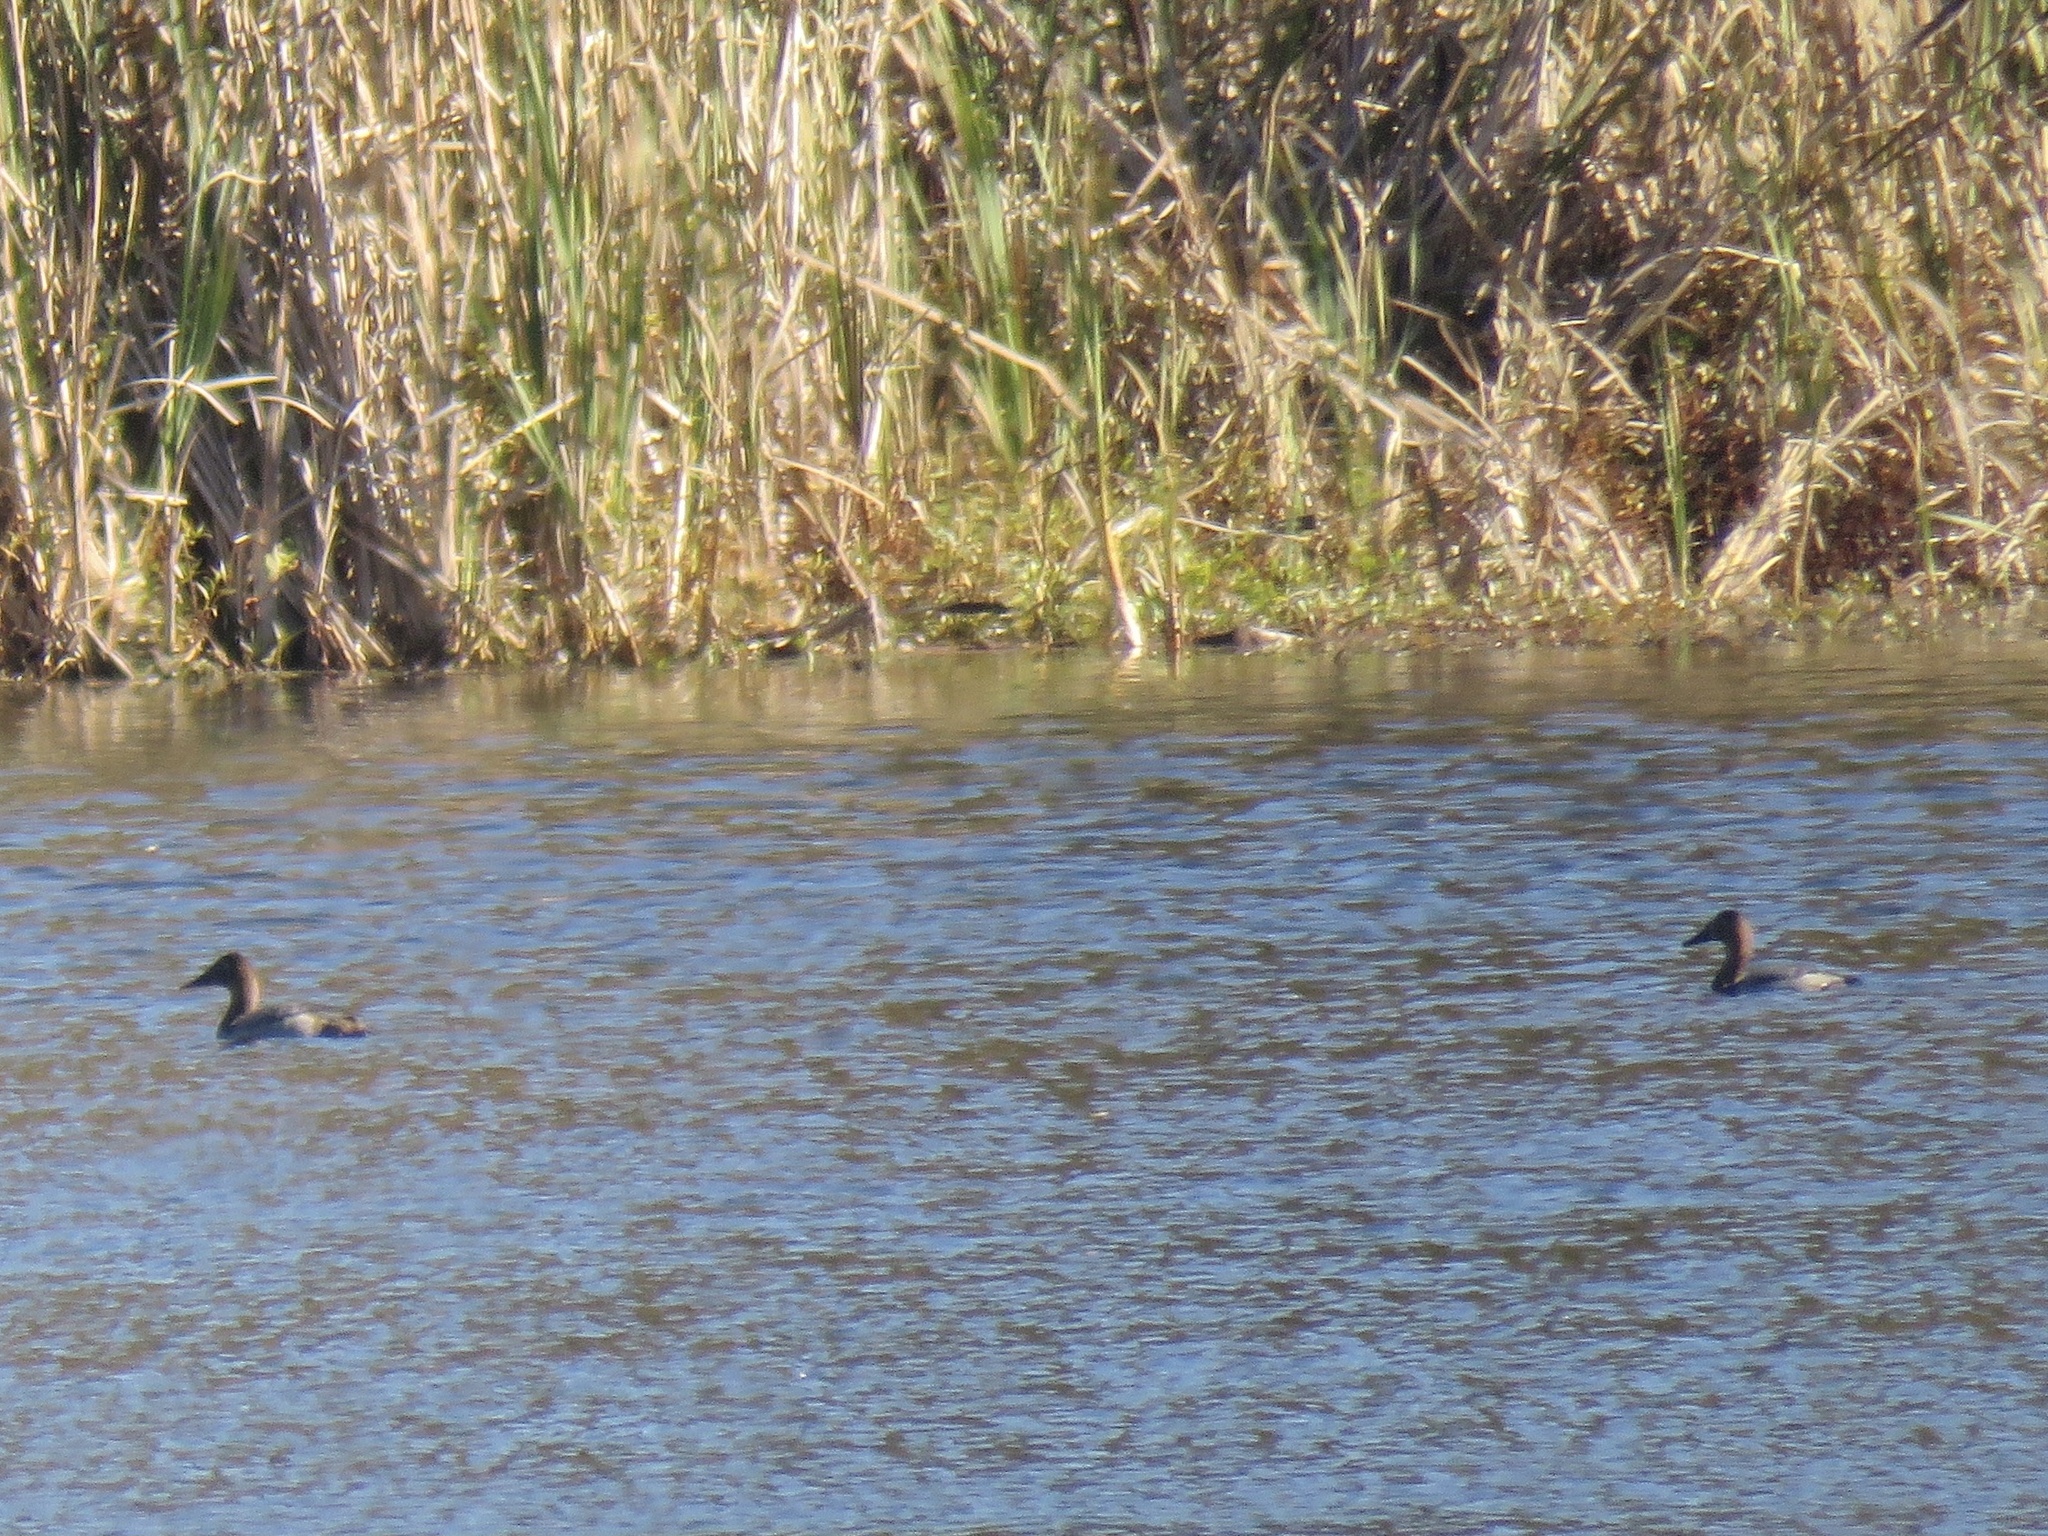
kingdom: Animalia
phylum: Chordata
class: Aves
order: Anseriformes
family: Anatidae
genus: Aythya
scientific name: Aythya valisineria
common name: Canvasback
